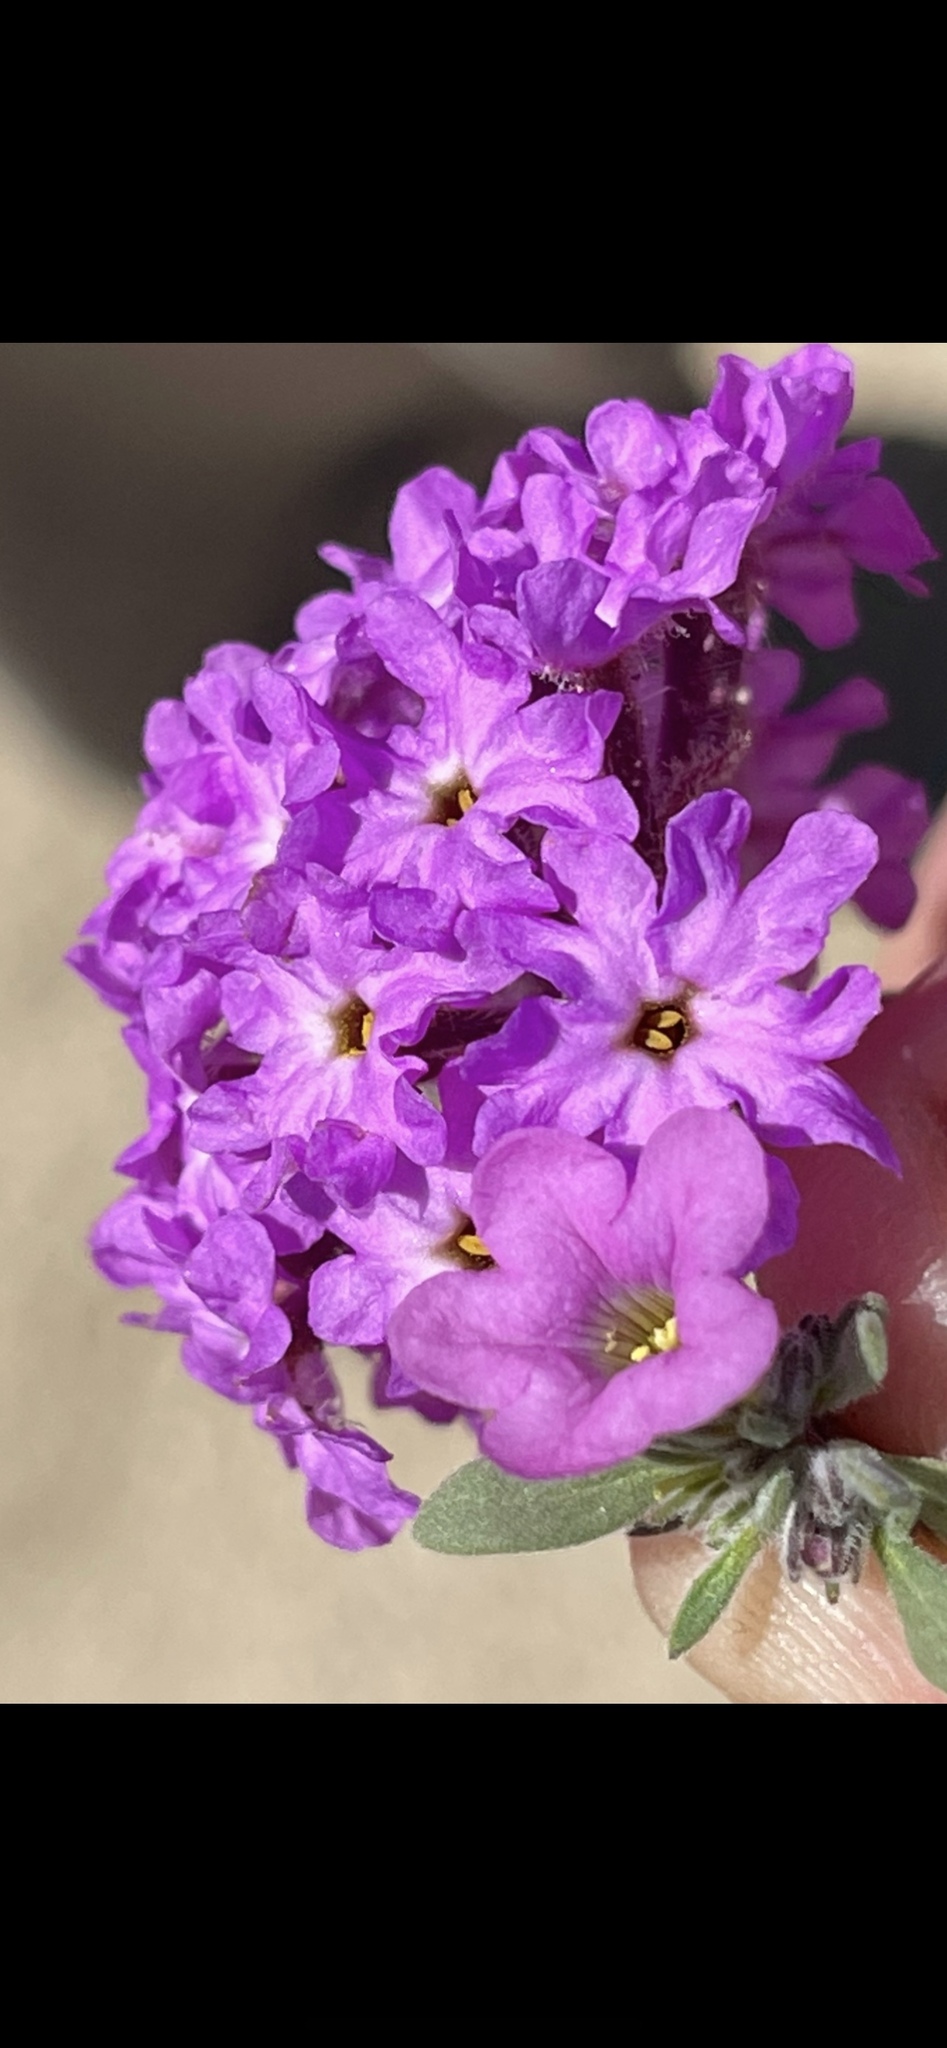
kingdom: Plantae
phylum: Tracheophyta
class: Magnoliopsida
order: Boraginales
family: Namaceae
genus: Nama
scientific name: Nama demissa
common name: Leafy nama
